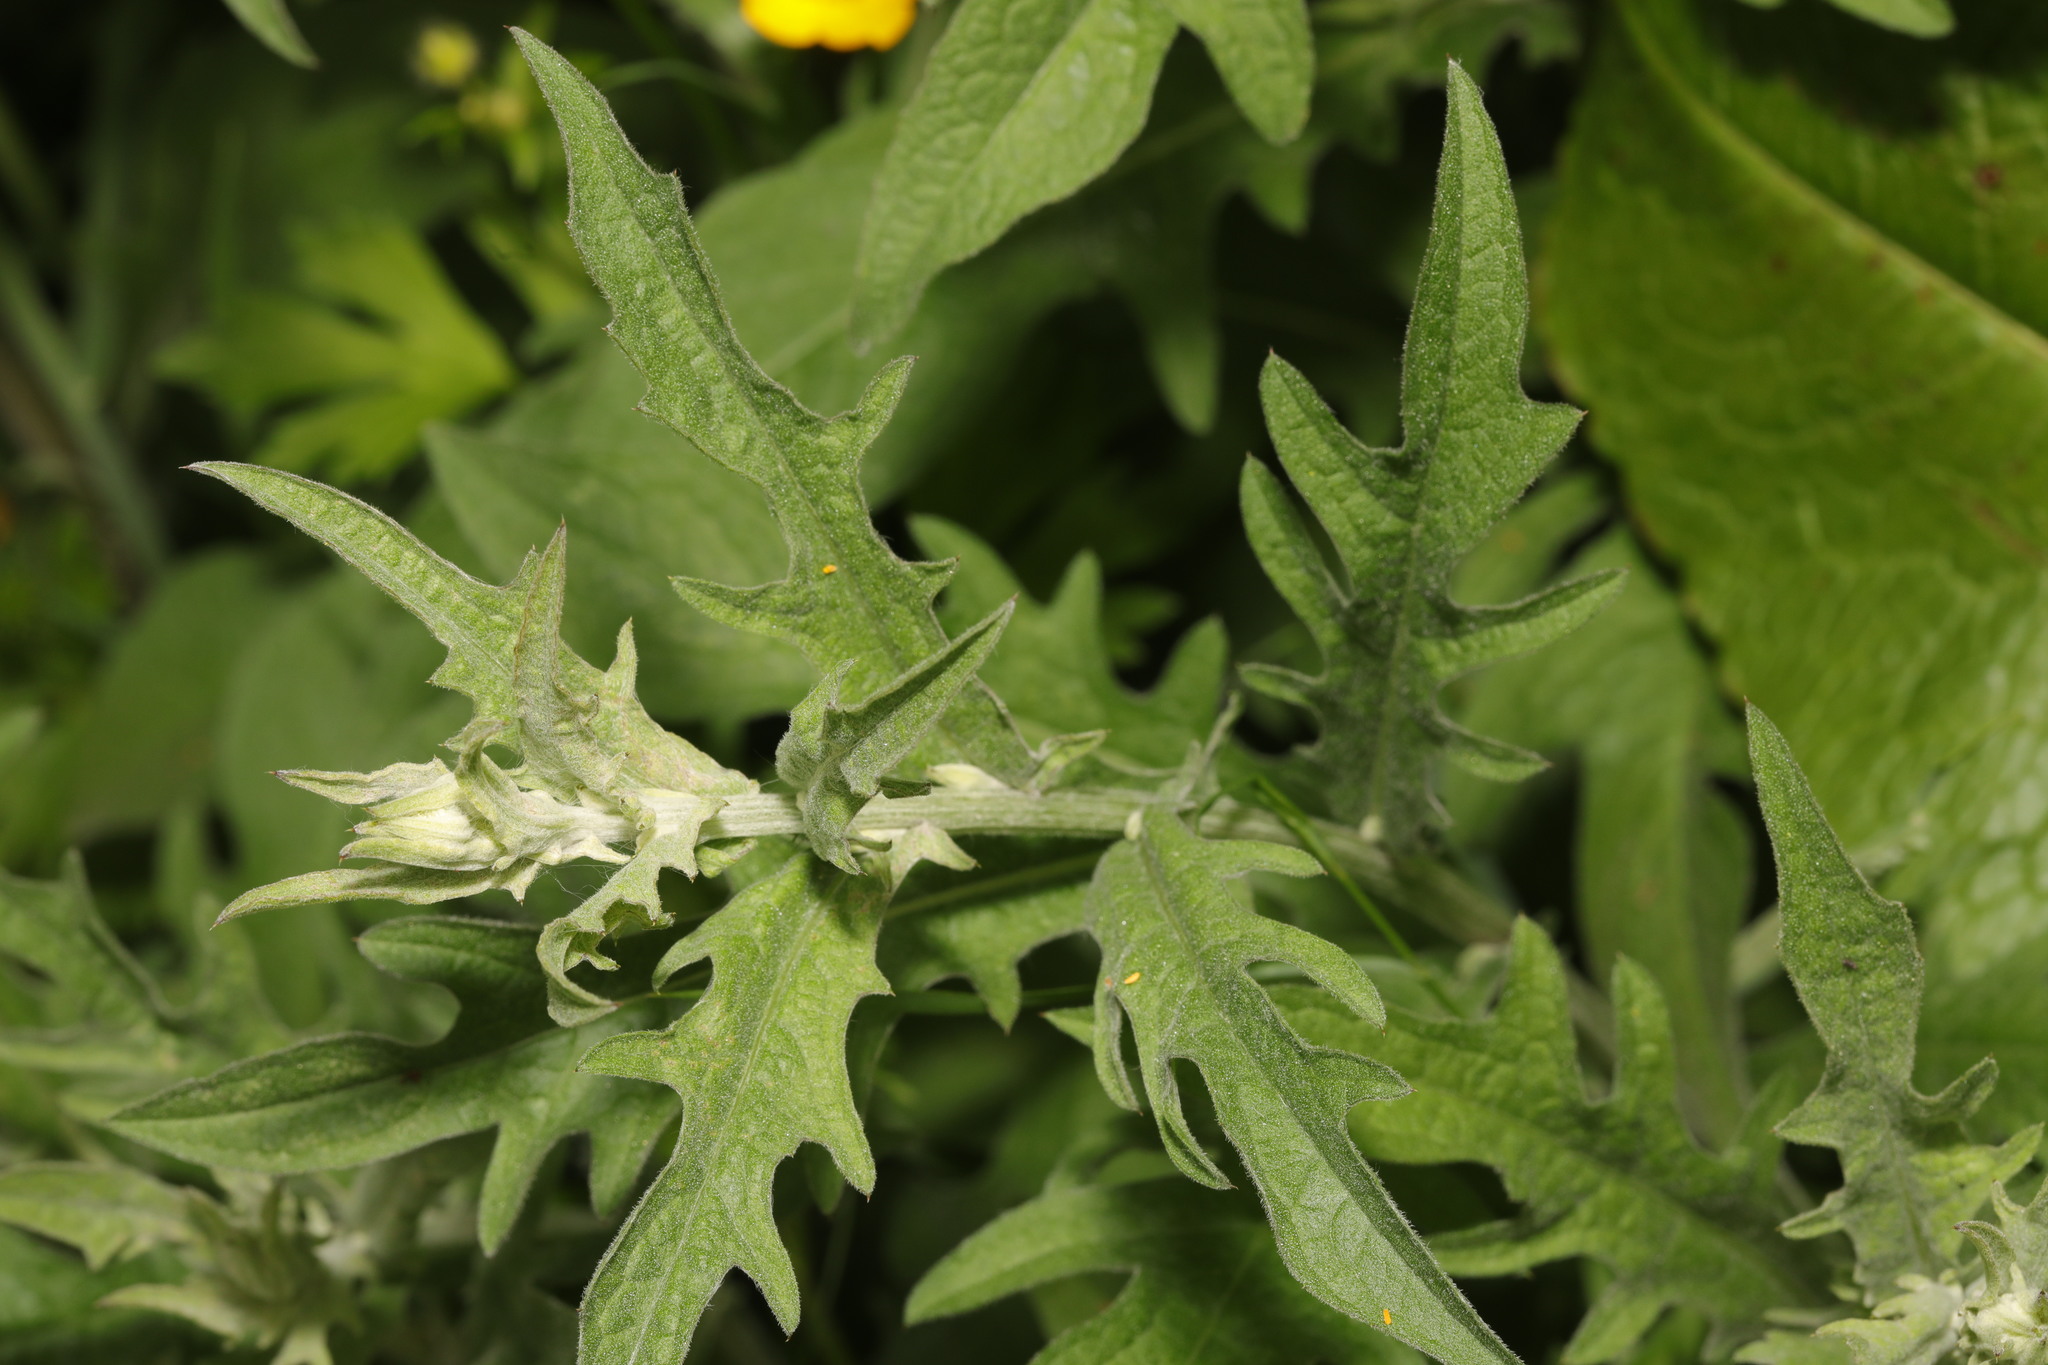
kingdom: Plantae
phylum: Tracheophyta
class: Magnoliopsida
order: Asterales
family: Asteraceae
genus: Centaurea
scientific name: Centaurea nigra
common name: Lesser knapweed
